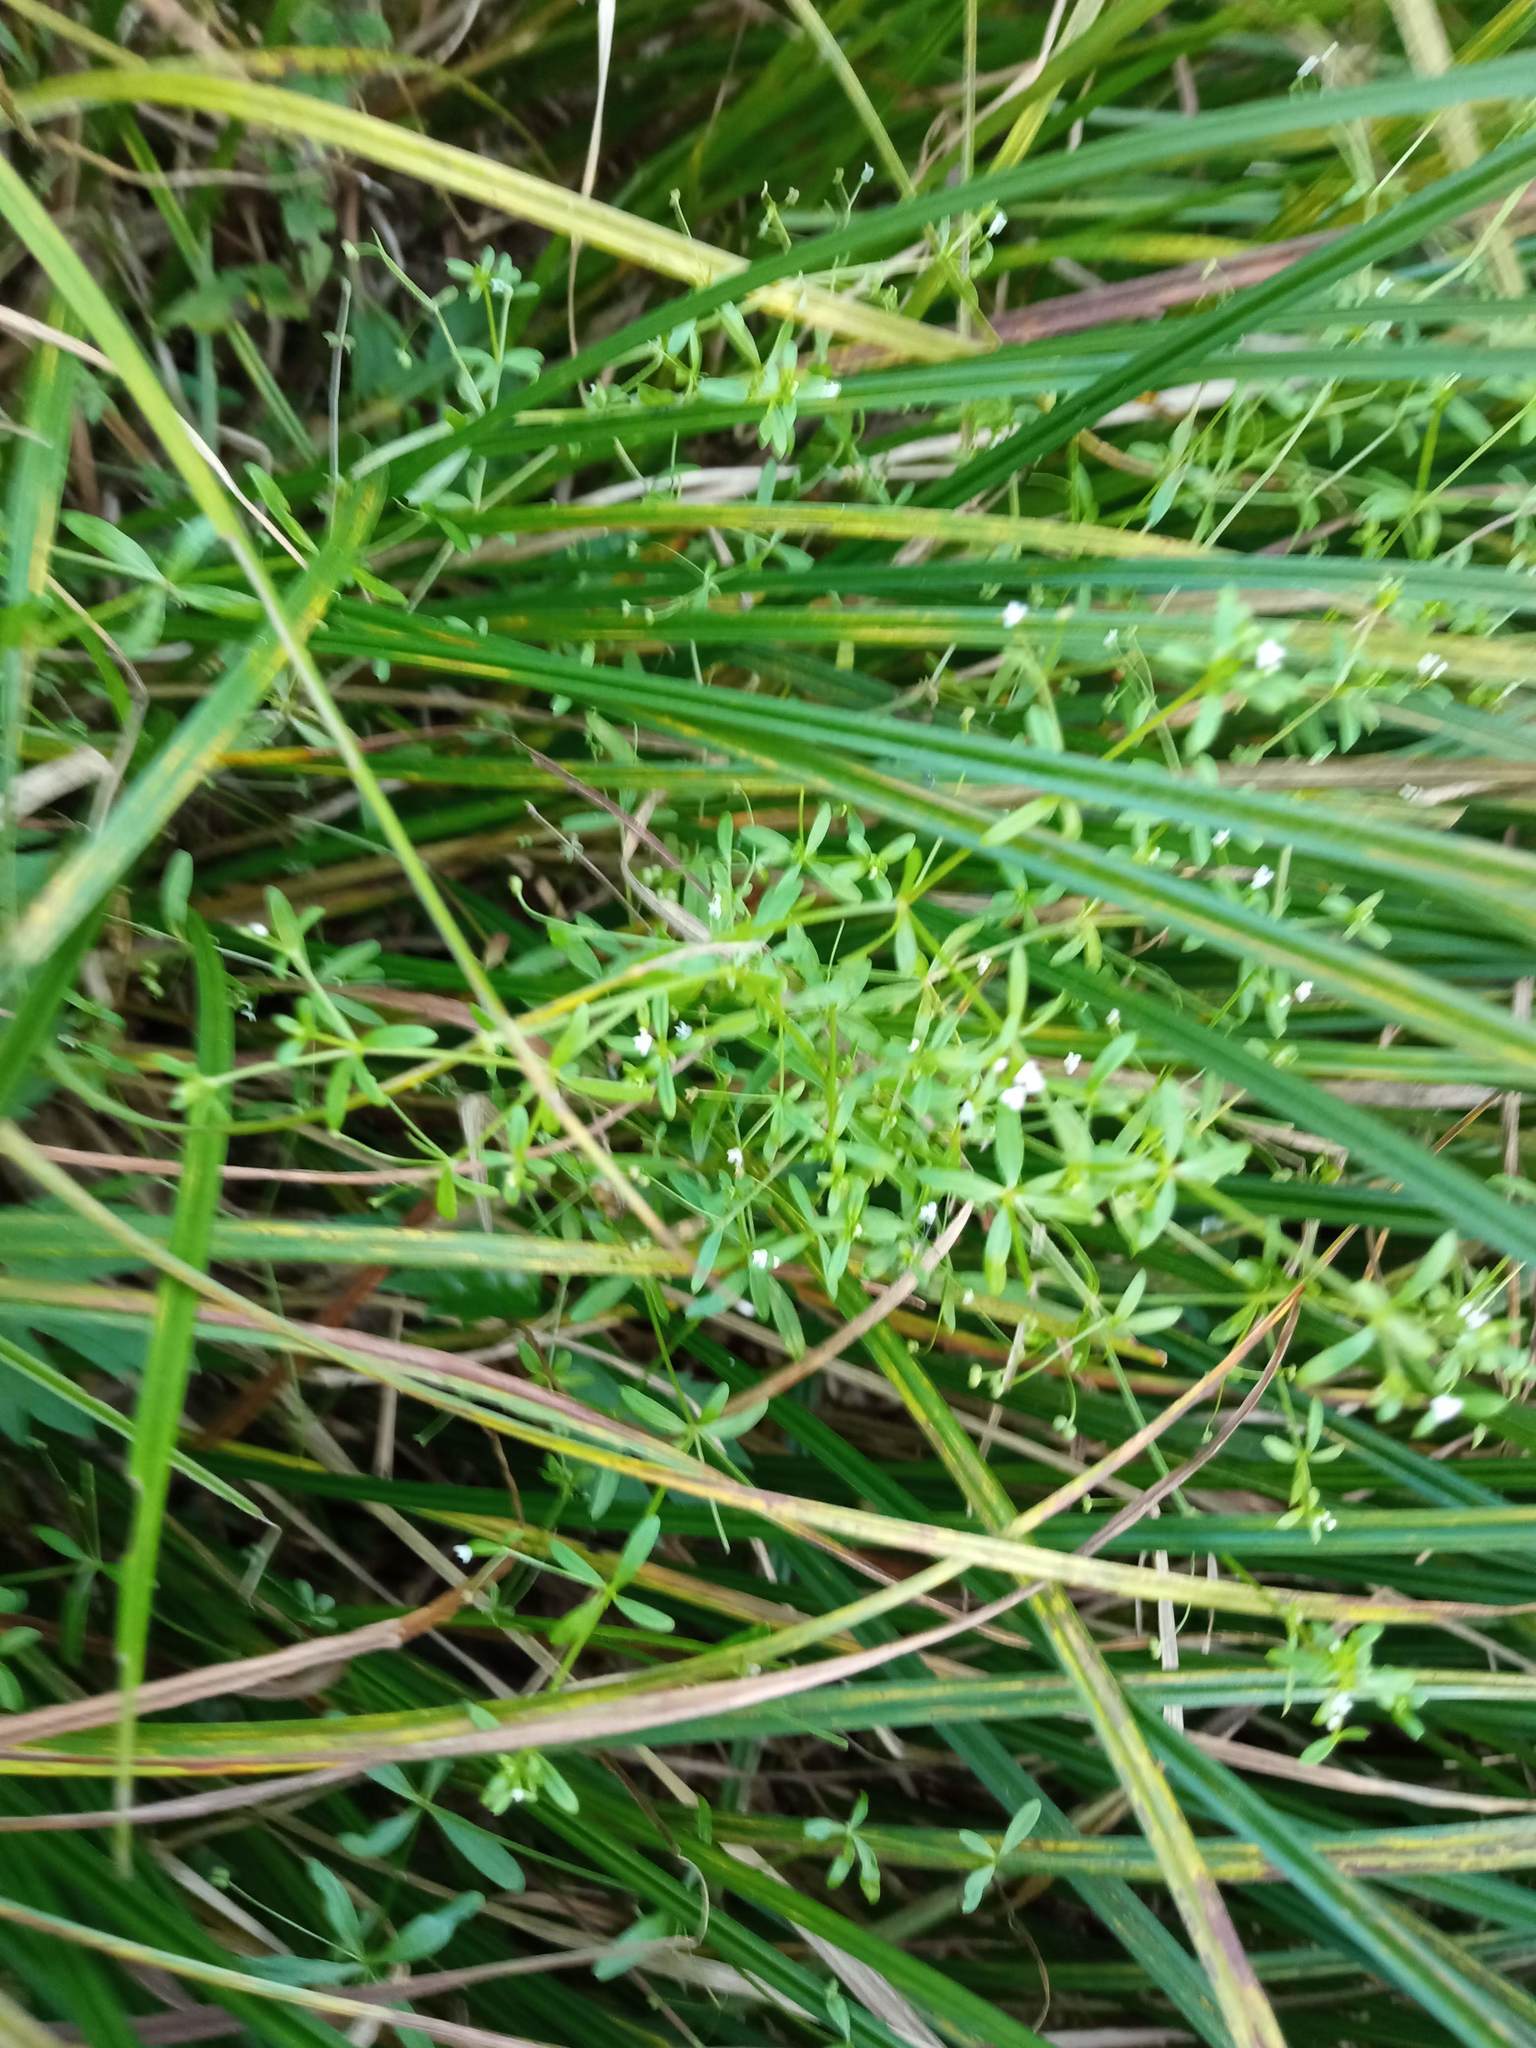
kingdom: Plantae
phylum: Tracheophyta
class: Magnoliopsida
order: Gentianales
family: Rubiaceae
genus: Galium
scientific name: Galium palustre
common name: Common marsh-bedstraw
